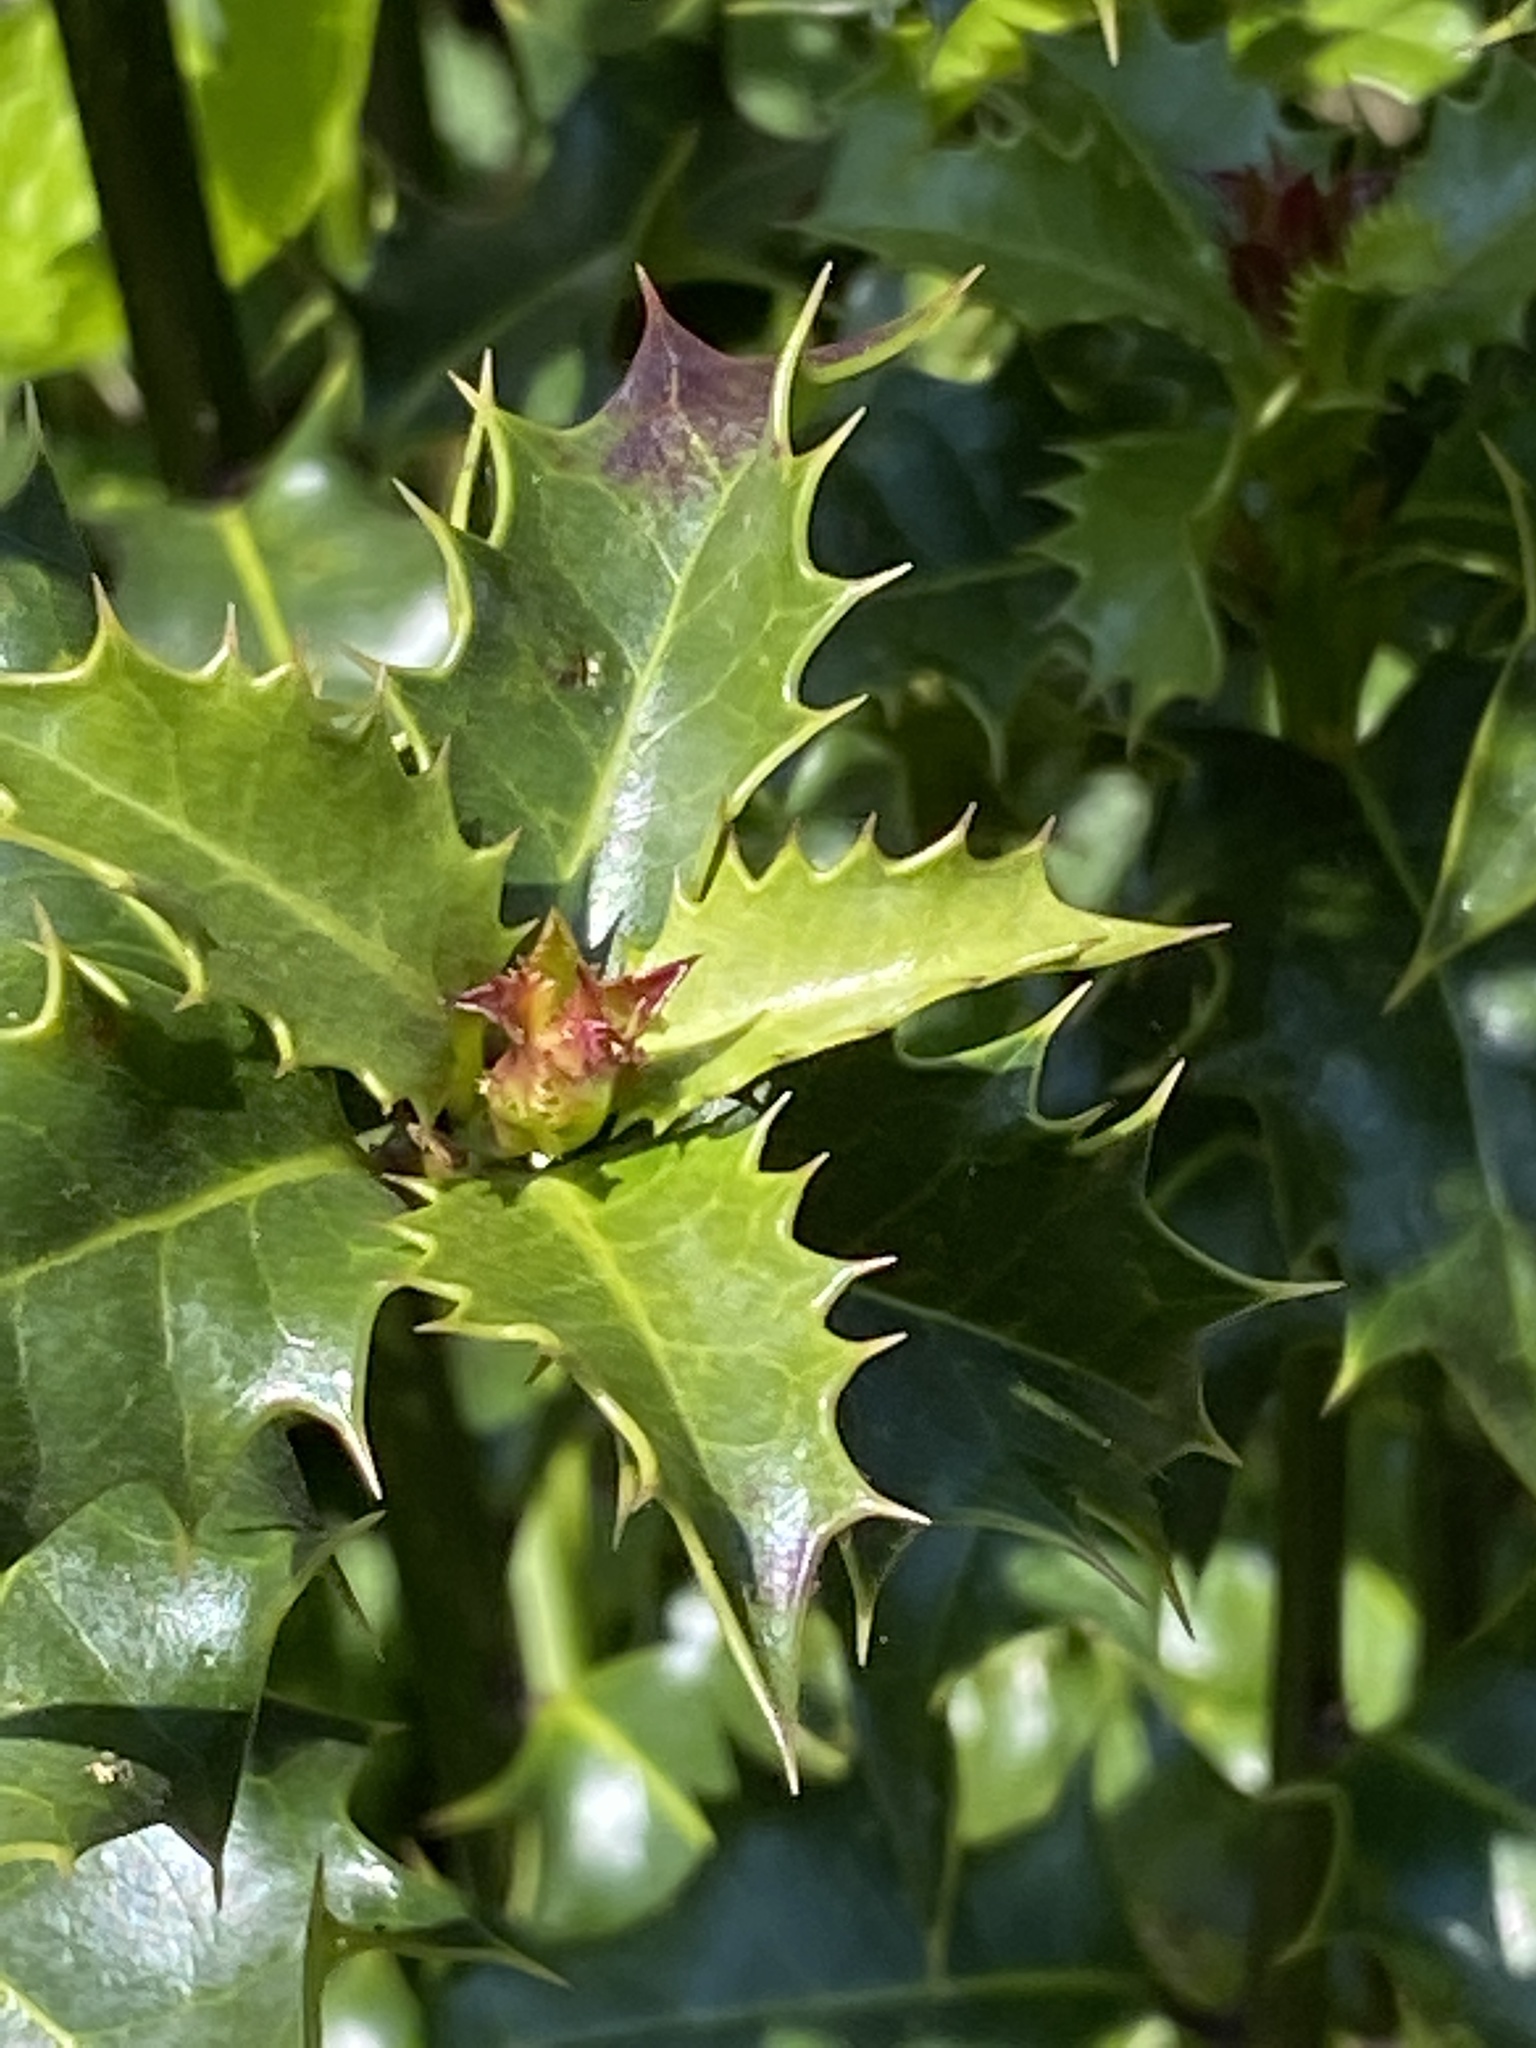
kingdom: Plantae
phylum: Tracheophyta
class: Magnoliopsida
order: Aquifoliales
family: Aquifoliaceae
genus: Ilex
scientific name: Ilex aquifolium
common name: English holly
